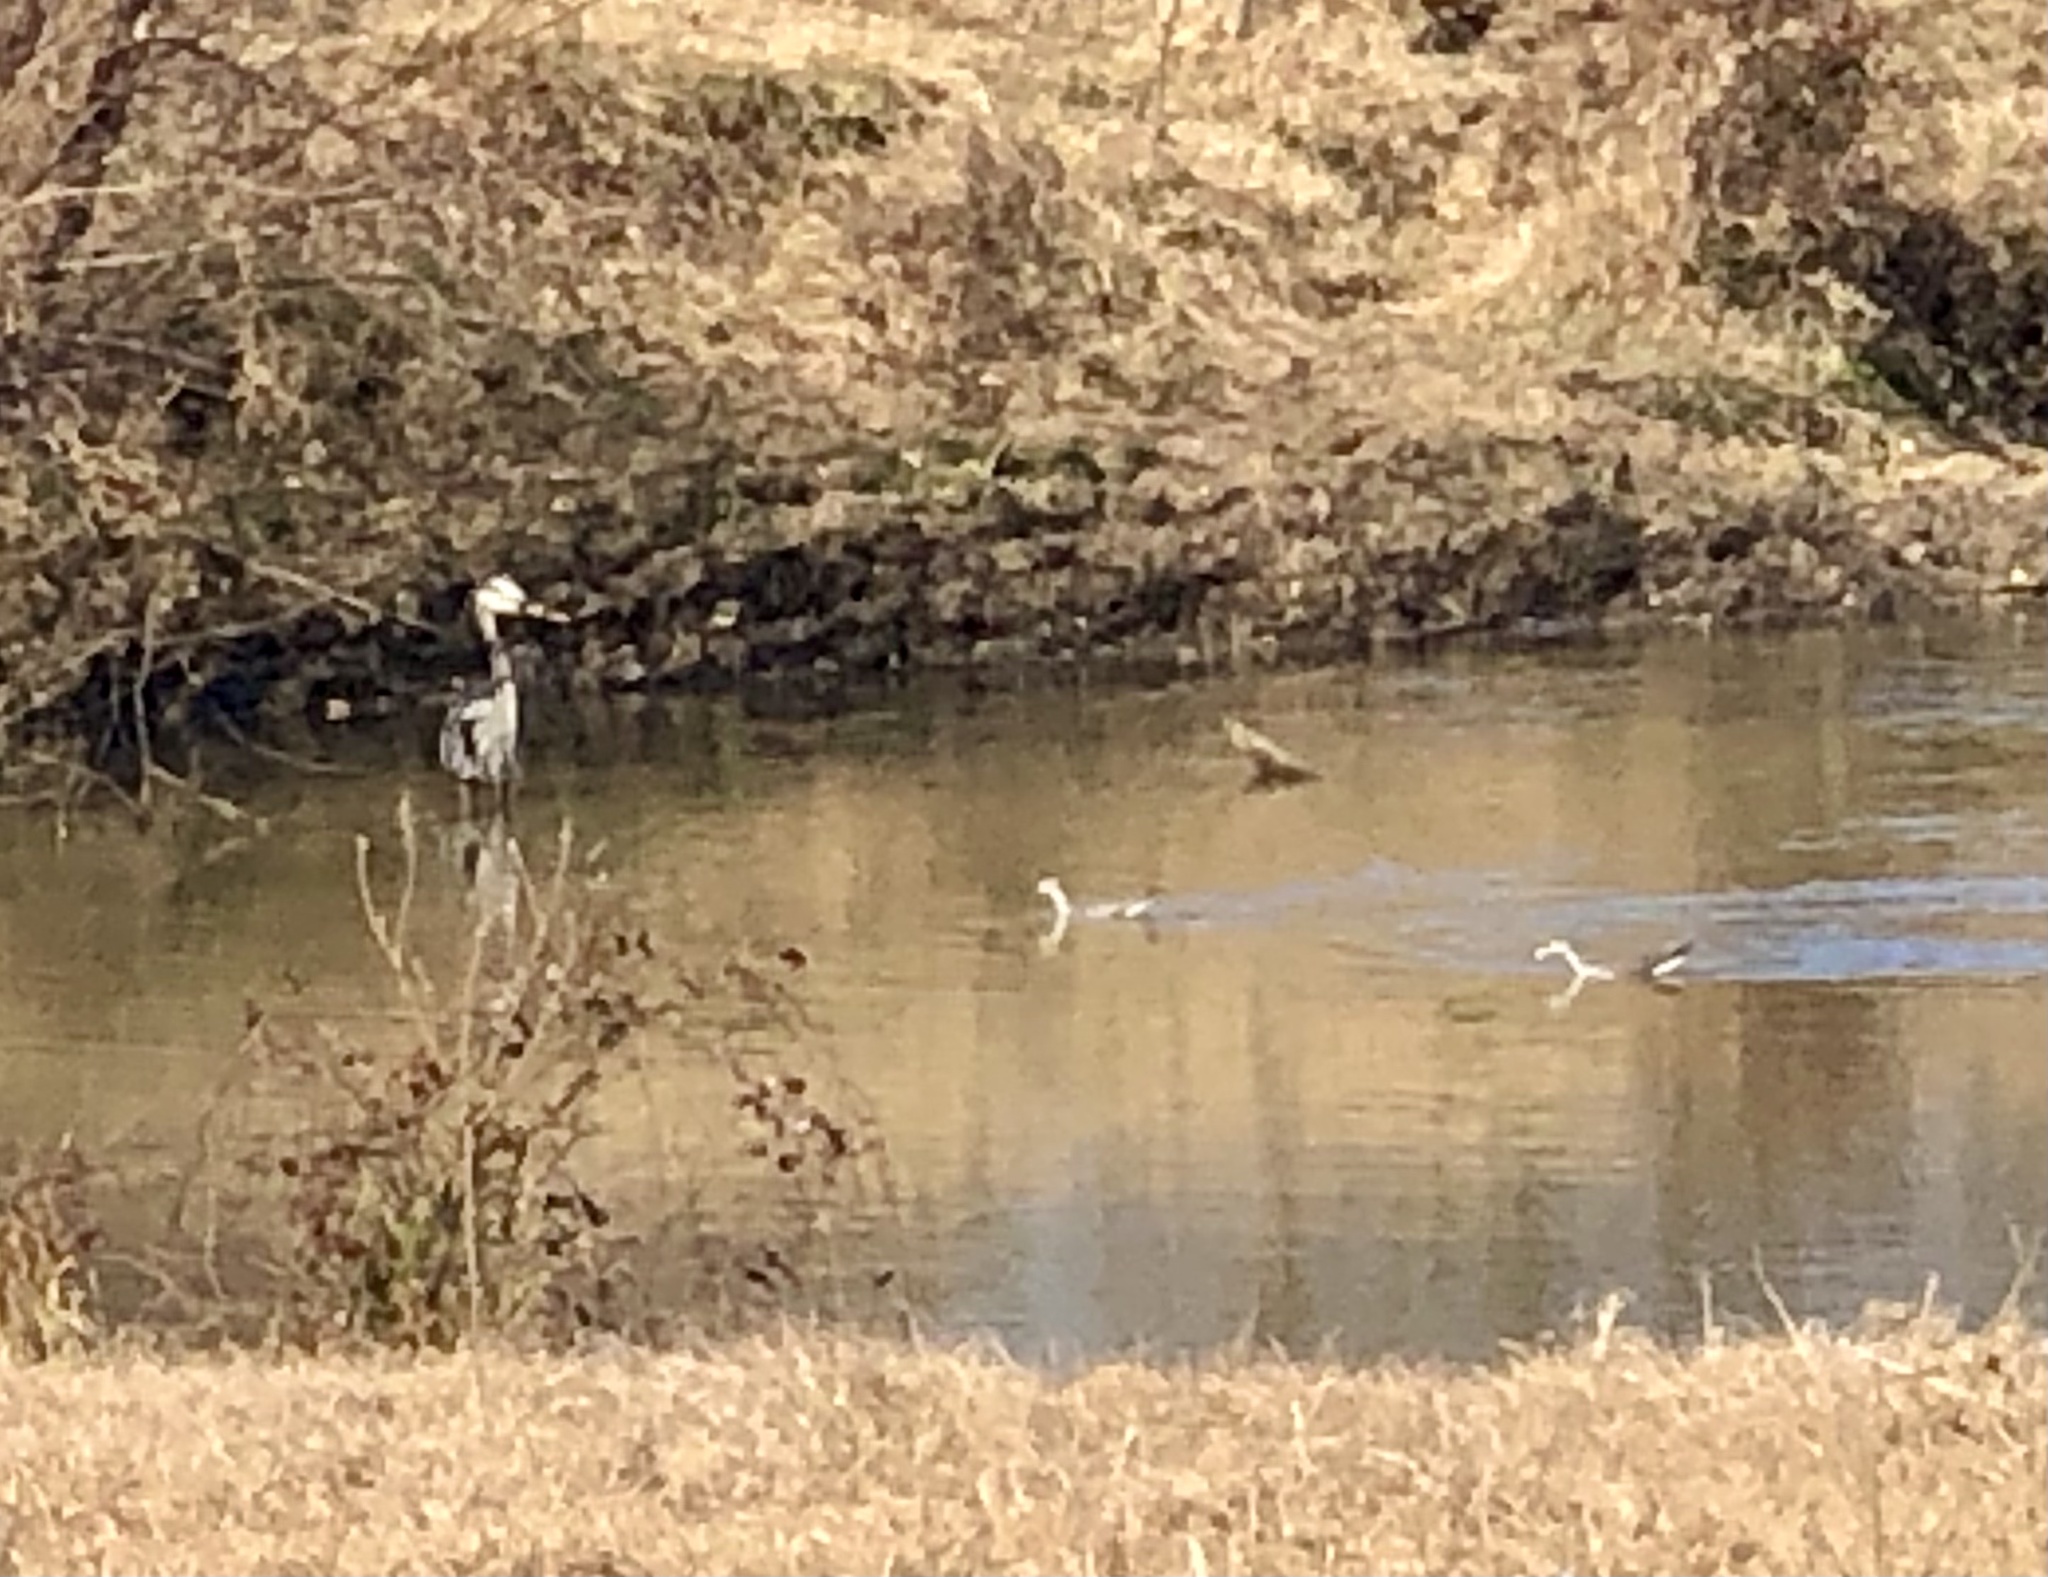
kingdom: Animalia
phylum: Chordata
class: Aves
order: Pelecaniformes
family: Ardeidae
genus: Ardea
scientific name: Ardea herodias
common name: Great blue heron
